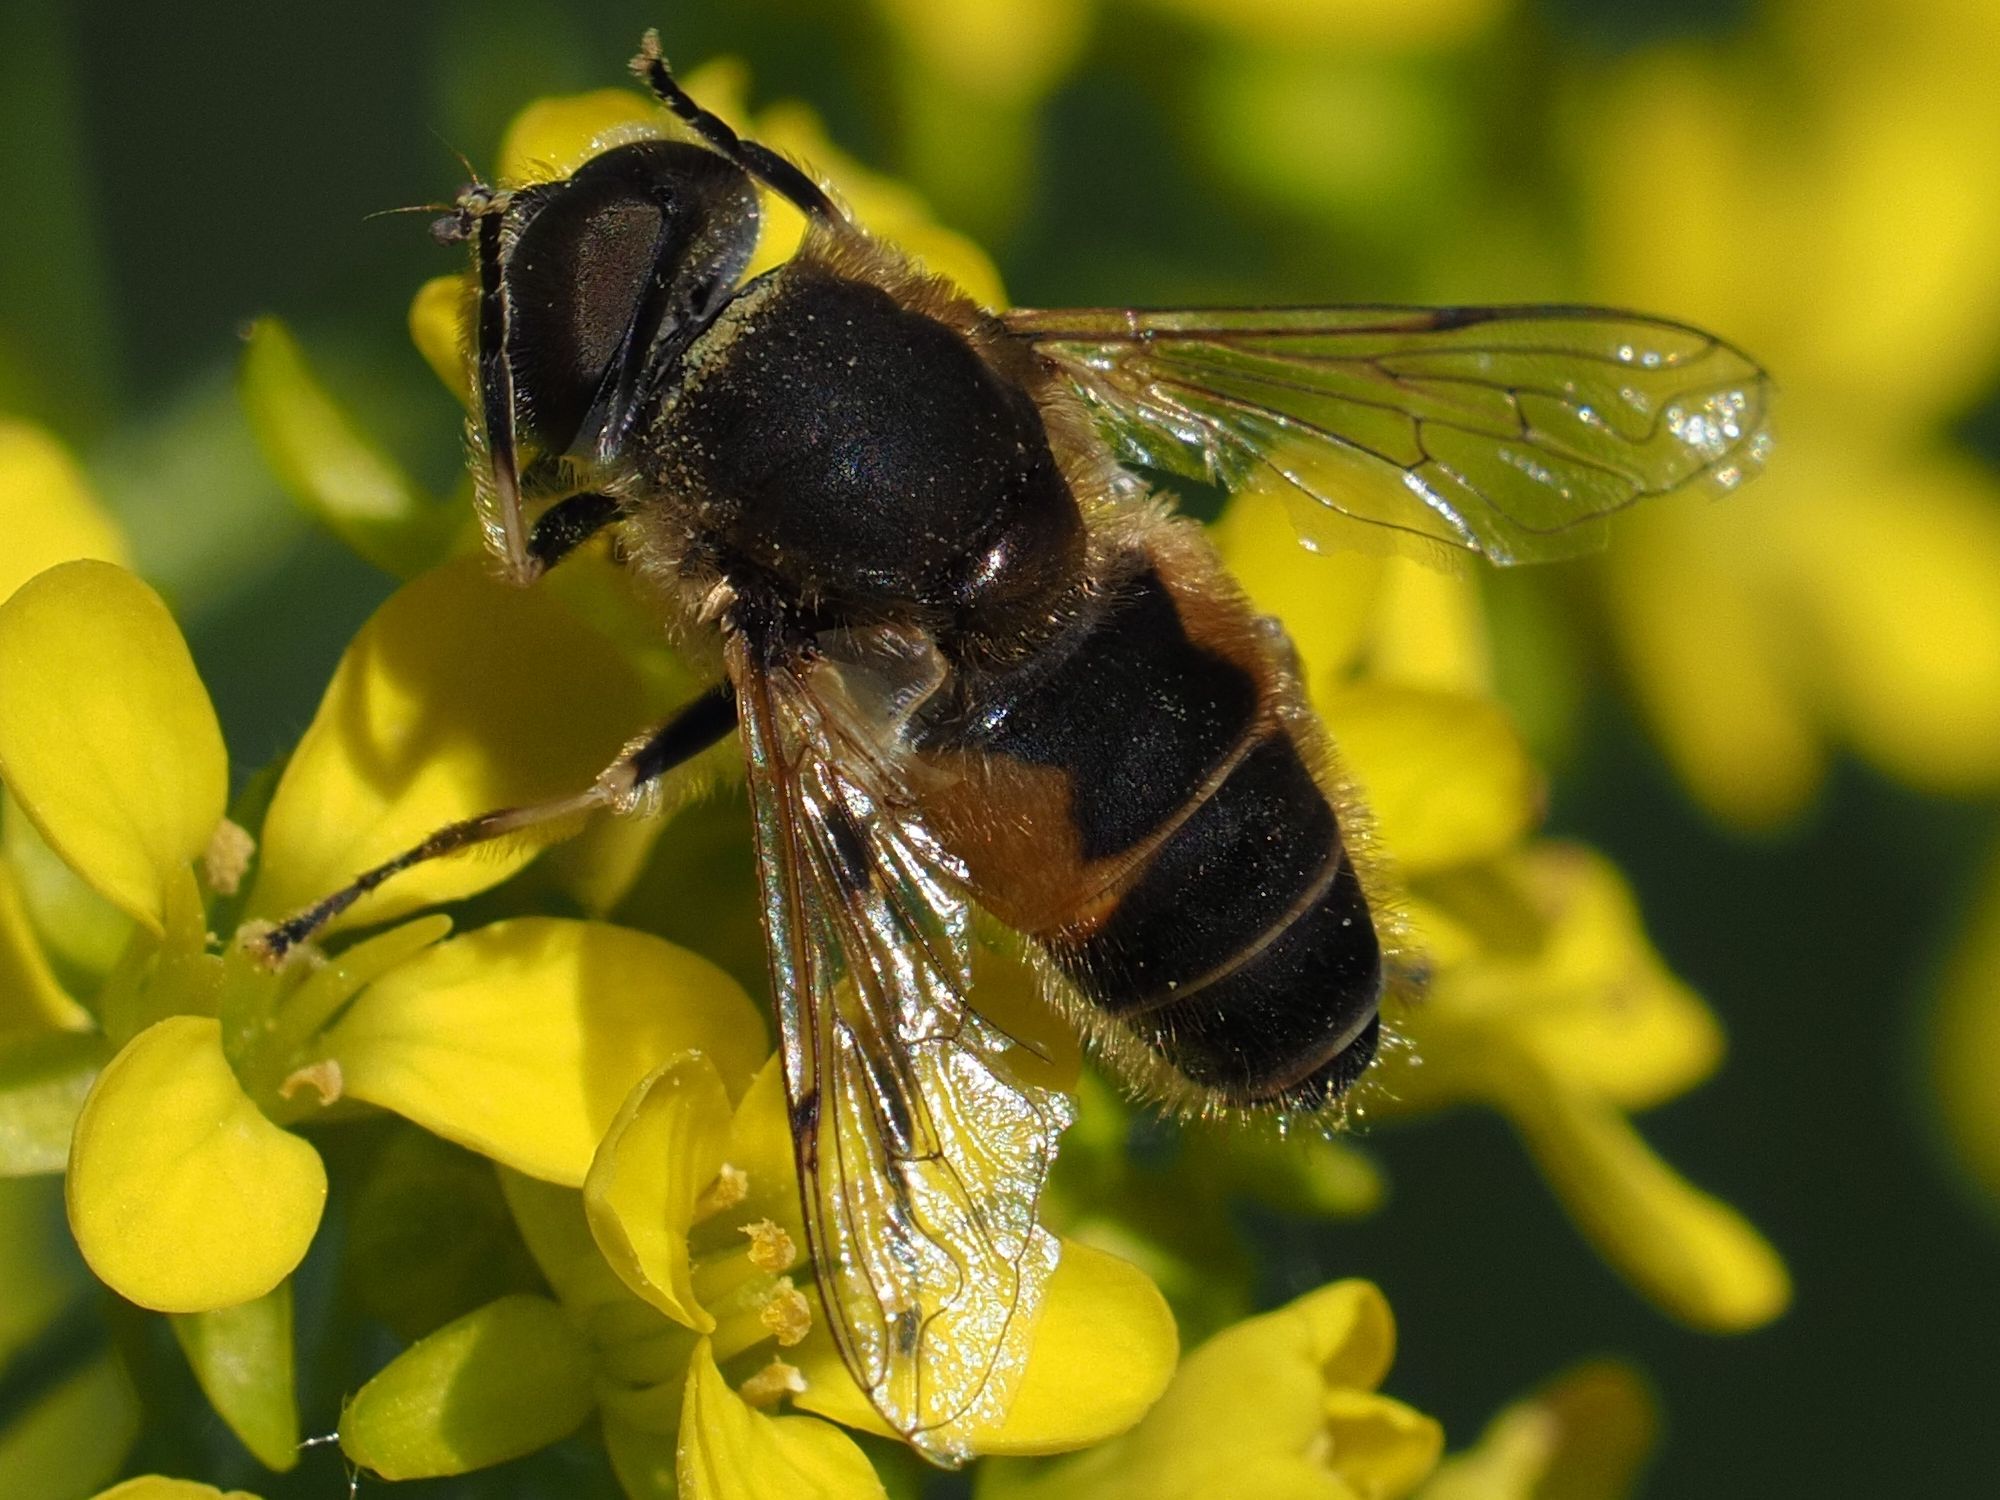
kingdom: Animalia
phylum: Arthropoda
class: Insecta
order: Diptera
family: Syrphidae
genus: Eristalis
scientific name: Eristalis arbustorum
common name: Hover fly
